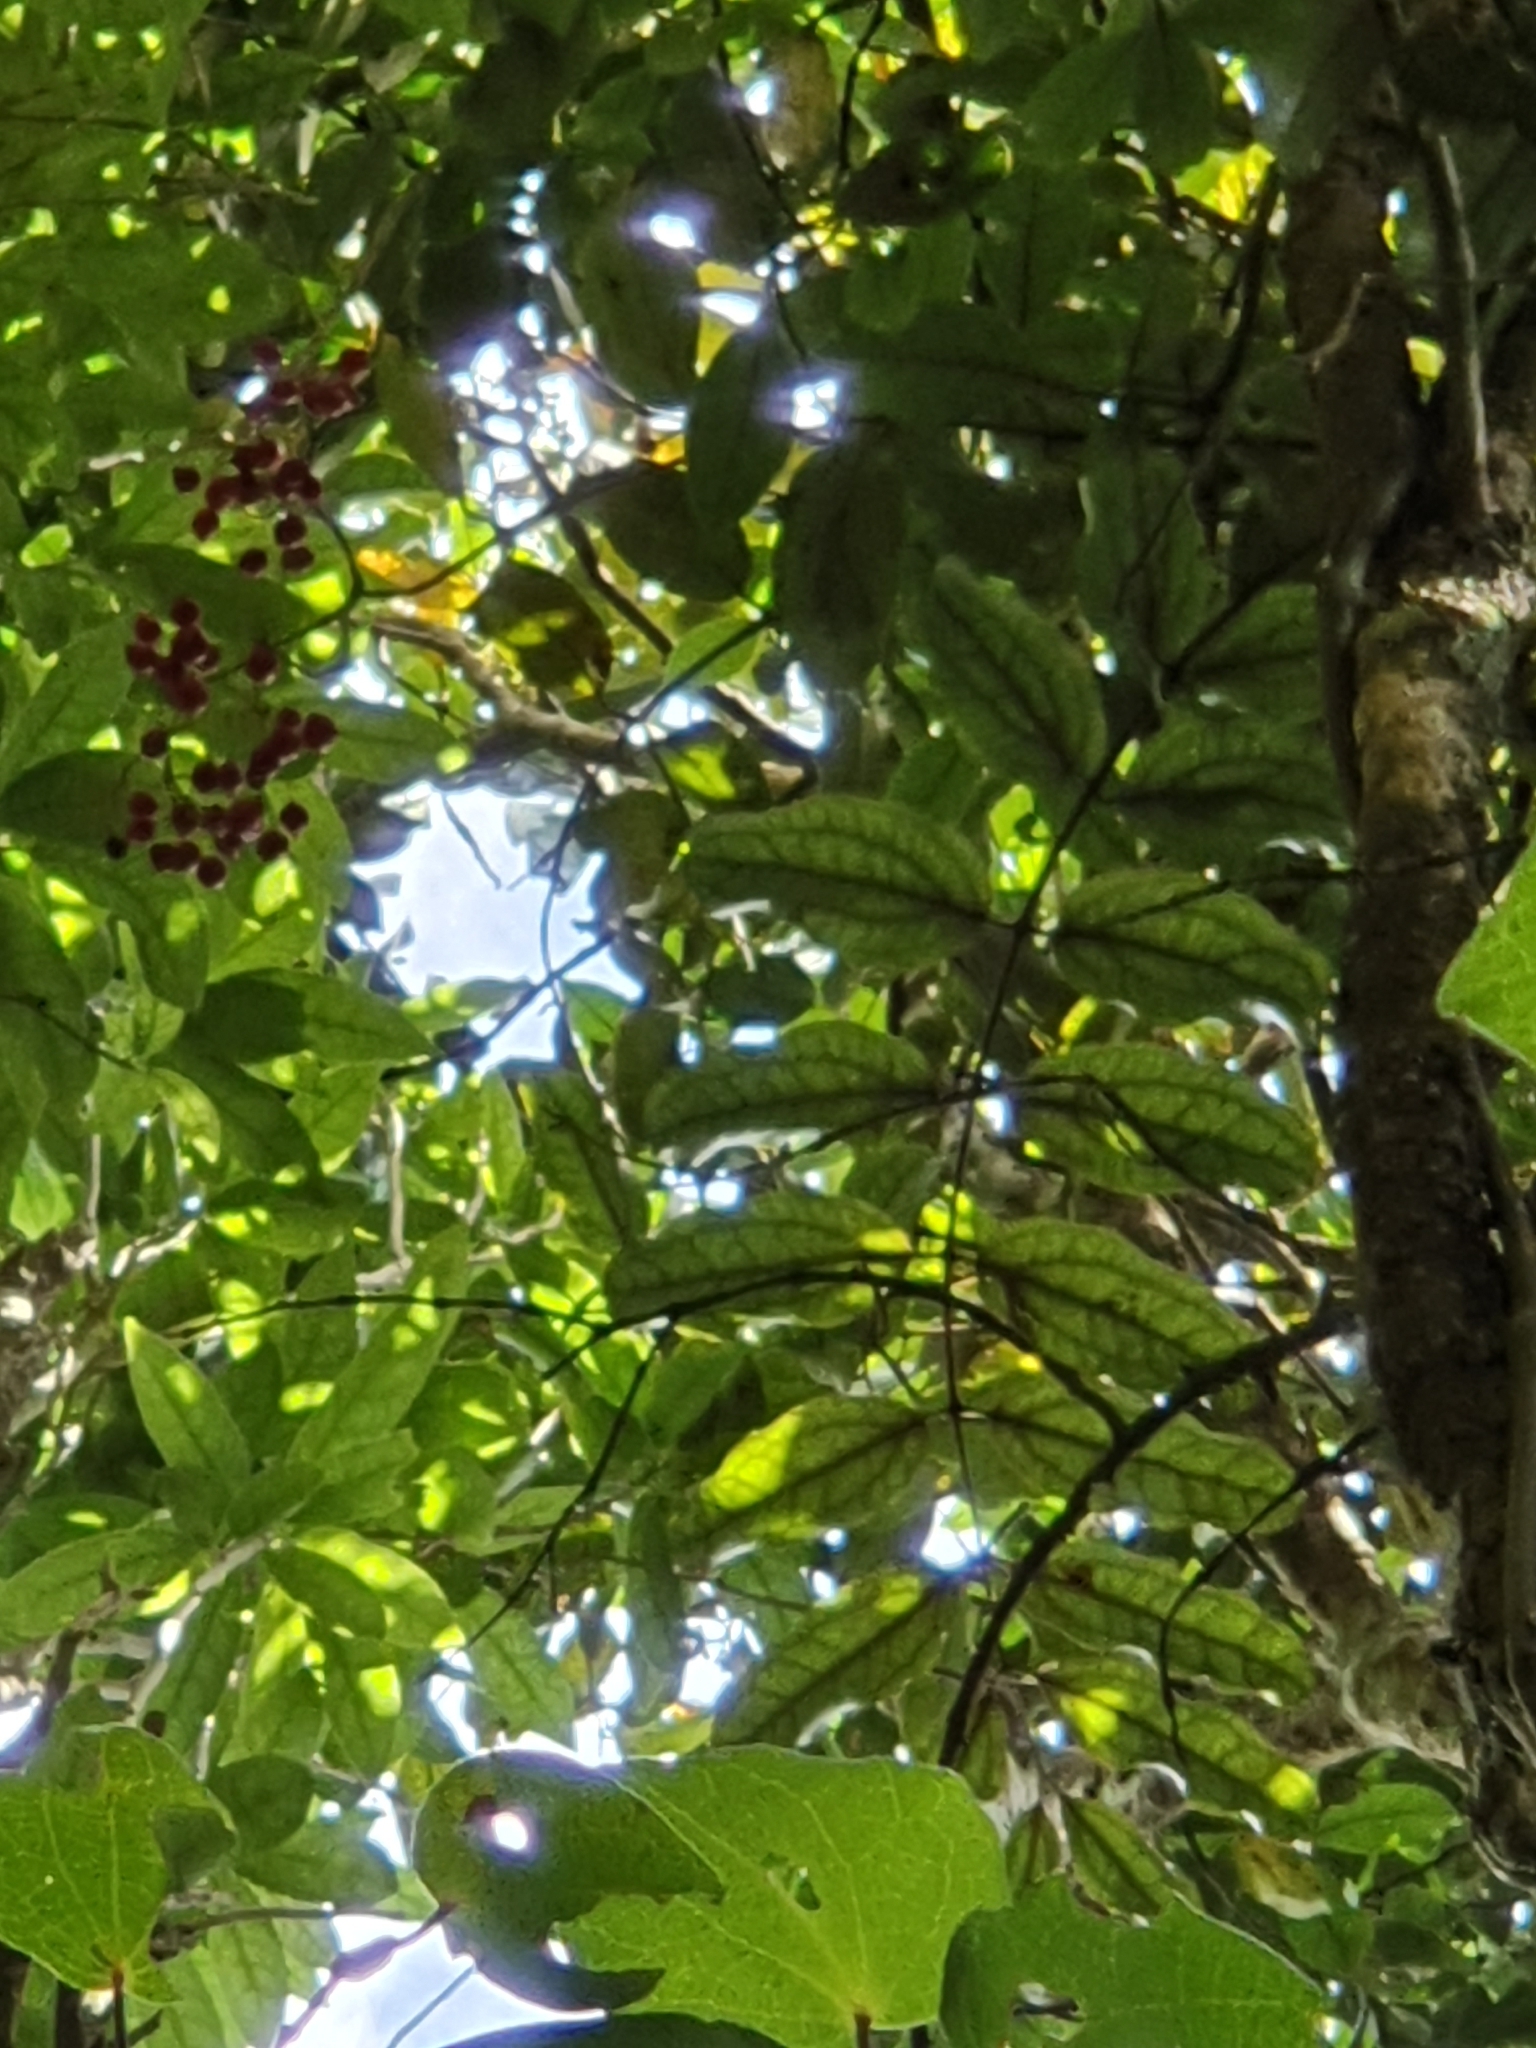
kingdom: Plantae
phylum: Tracheophyta
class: Liliopsida
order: Liliales
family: Ripogonaceae
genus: Ripogonum
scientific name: Ripogonum scandens
